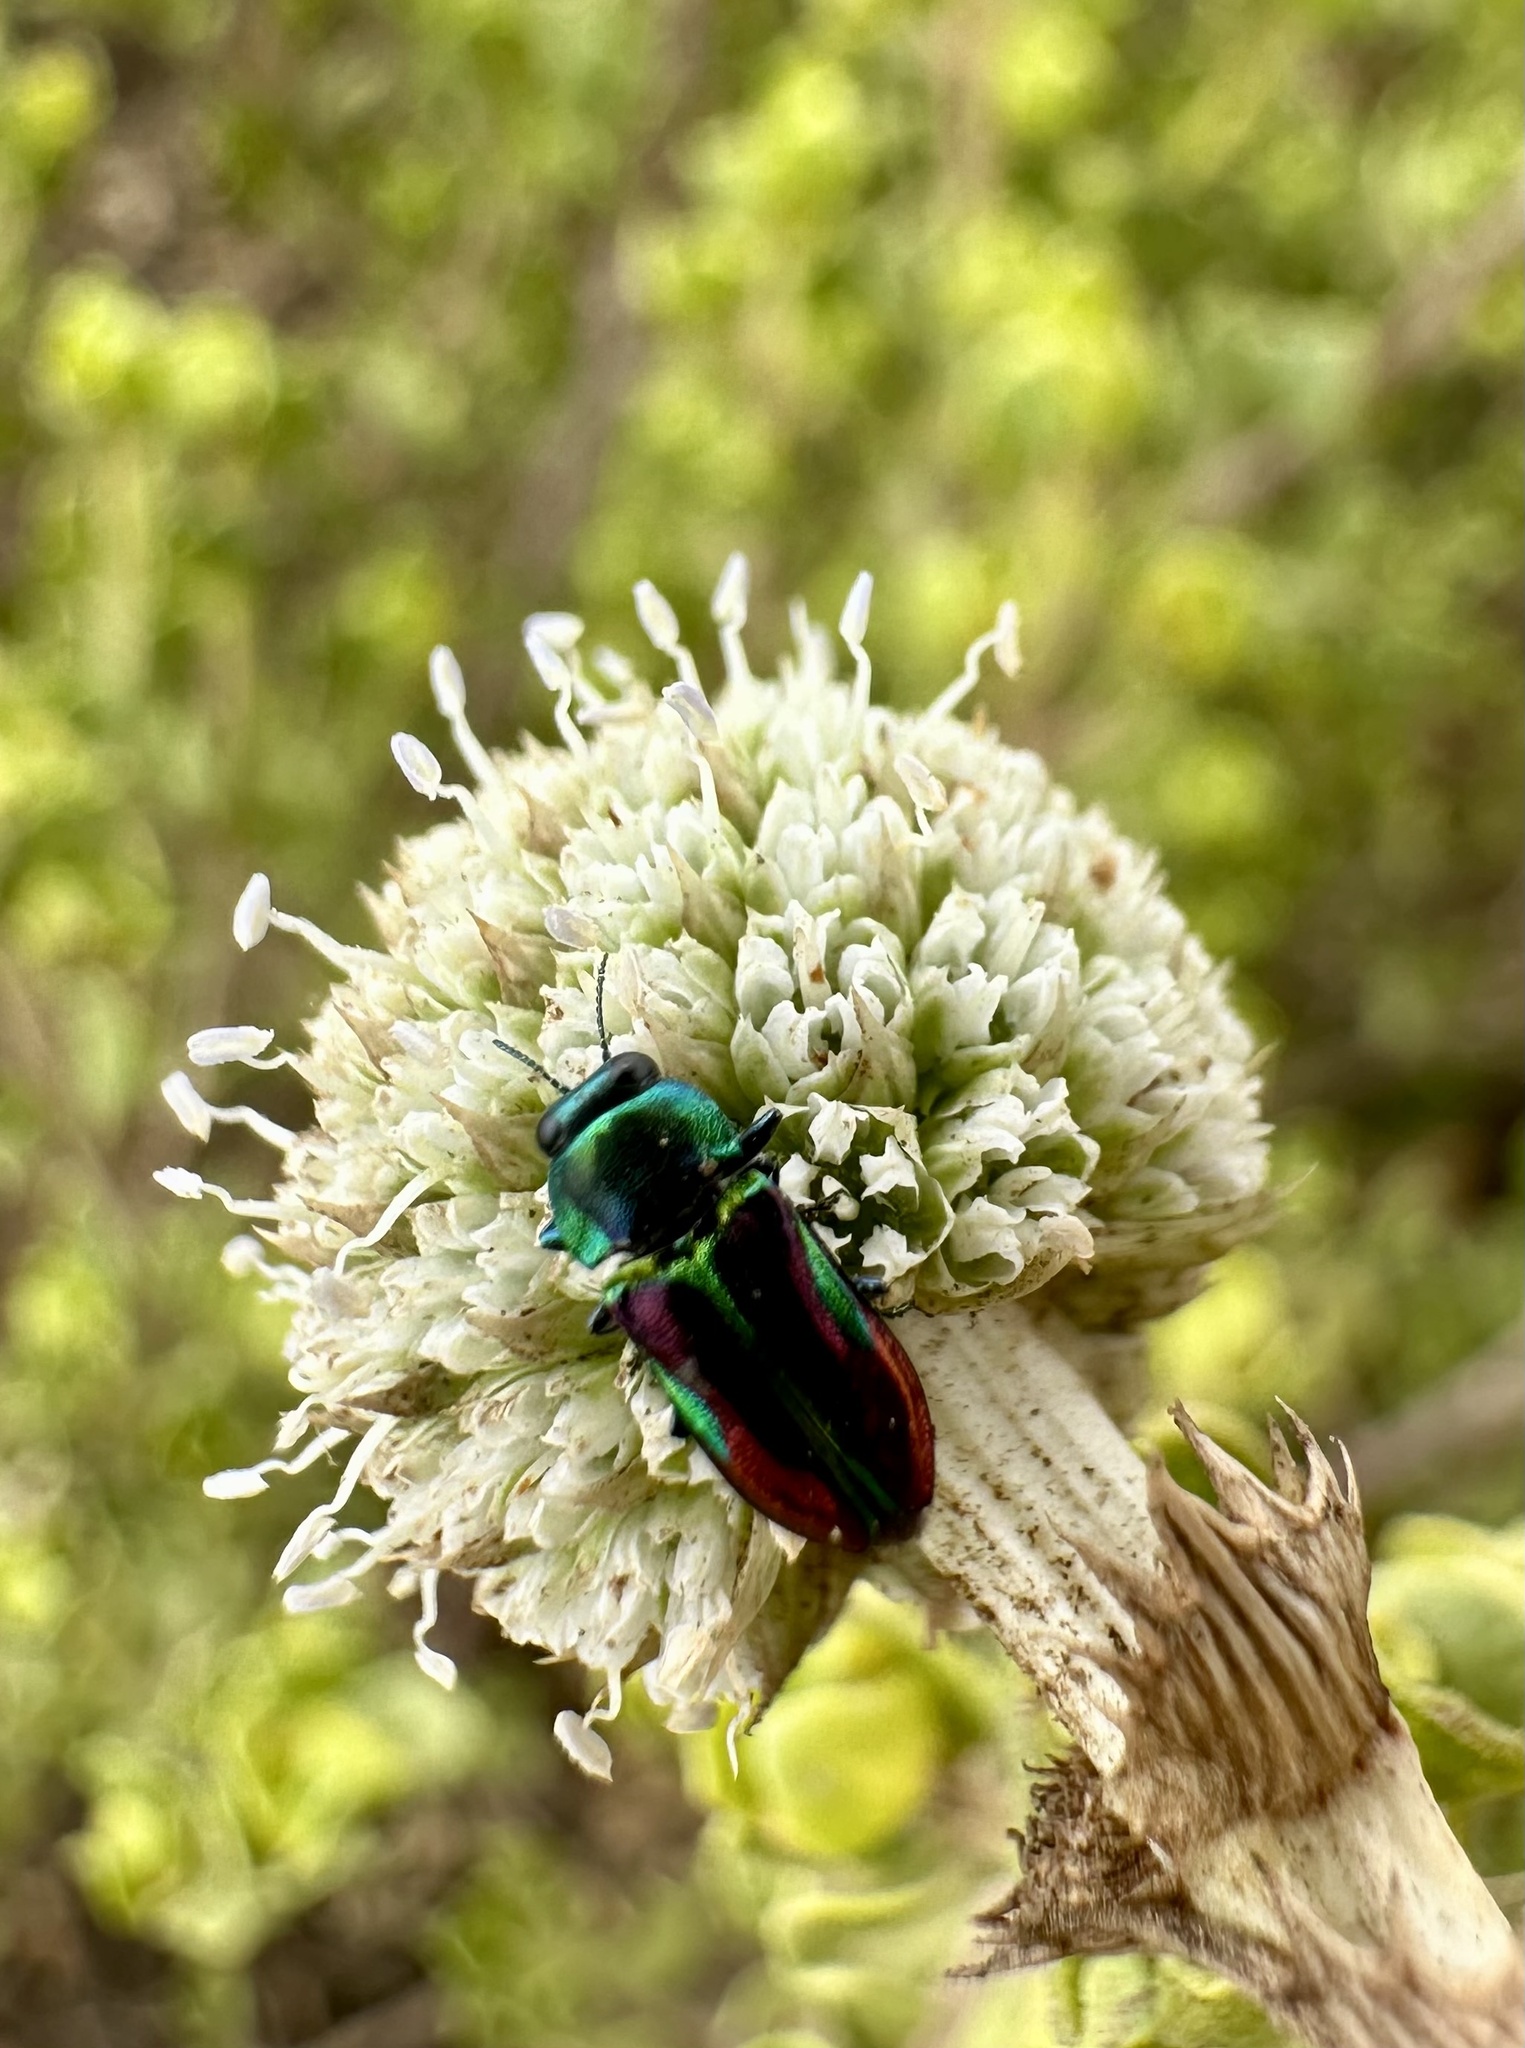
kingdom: Animalia
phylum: Arthropoda
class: Insecta
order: Coleoptera
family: Buprestidae
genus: Bilyaxia
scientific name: Bilyaxia concinna
